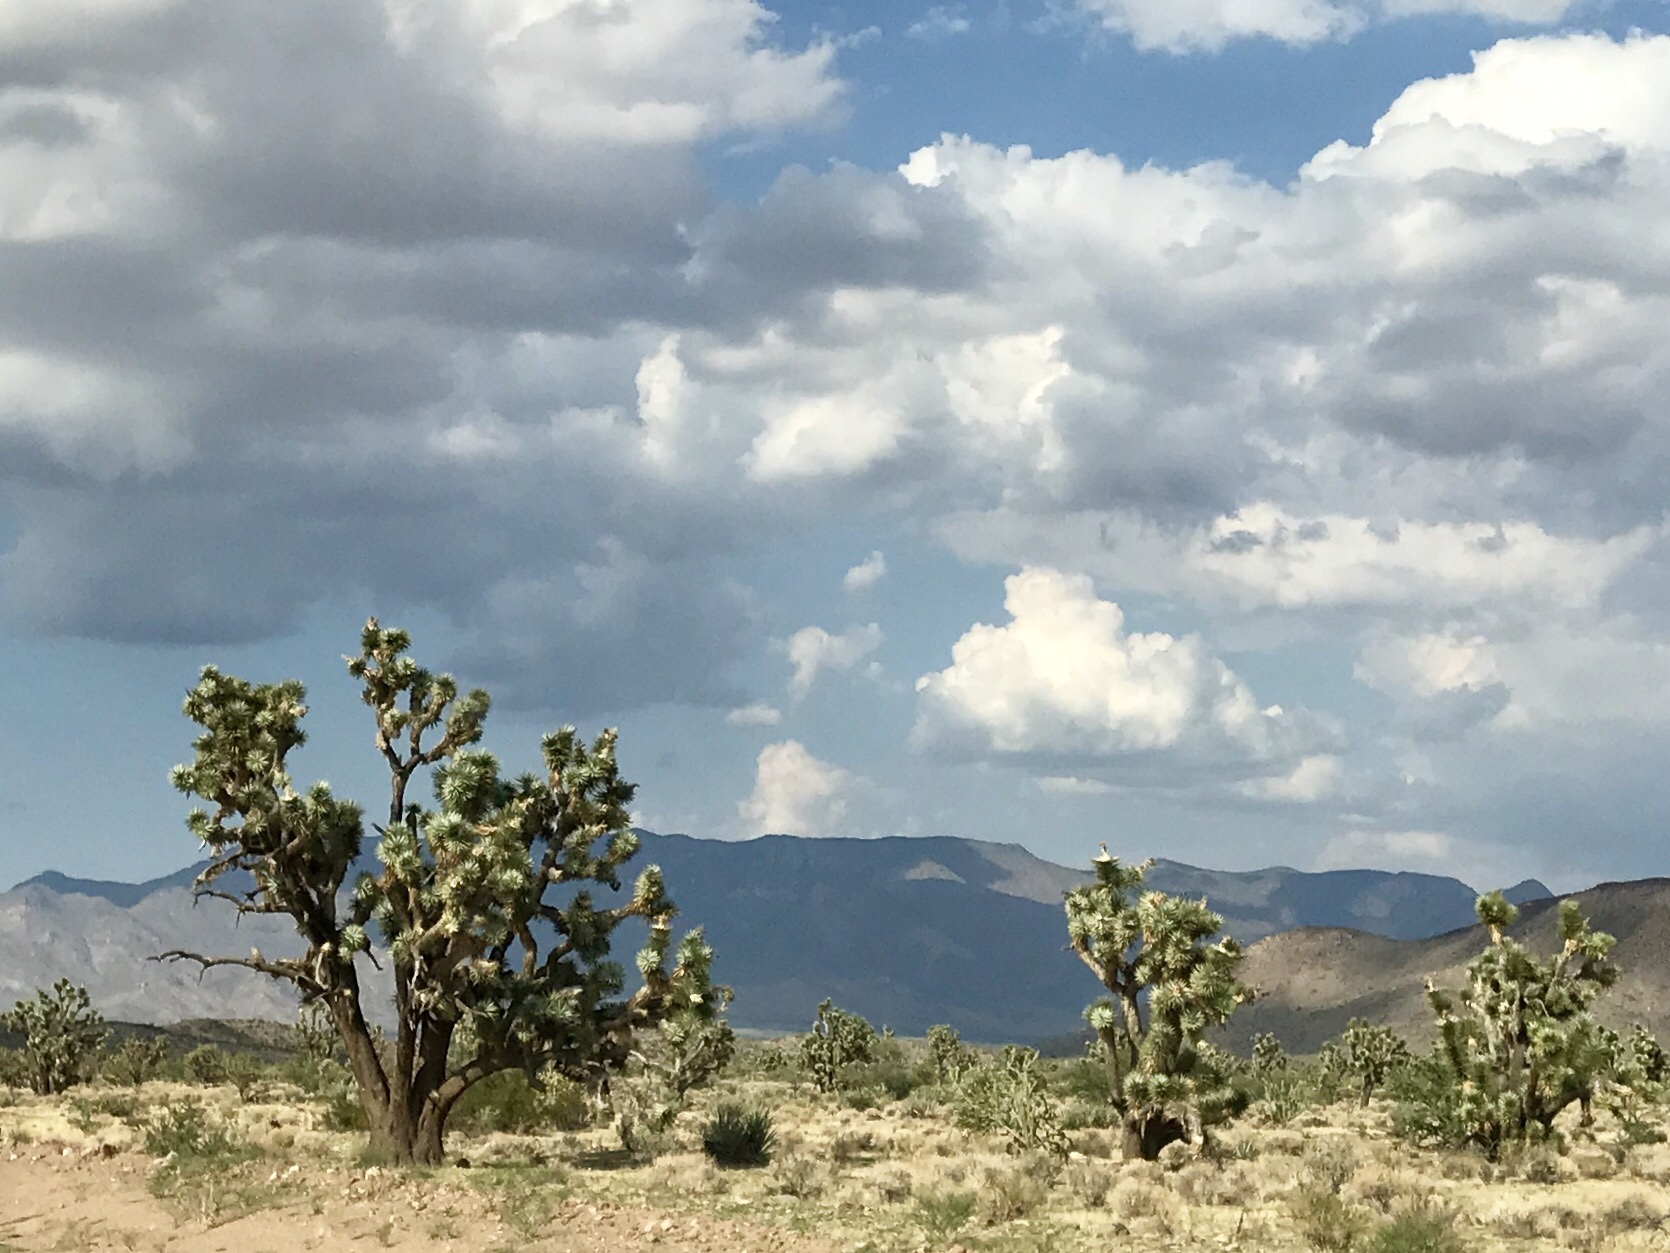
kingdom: Plantae
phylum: Tracheophyta
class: Liliopsida
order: Asparagales
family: Asparagaceae
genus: Yucca
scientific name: Yucca brevifolia
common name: Joshua tree
